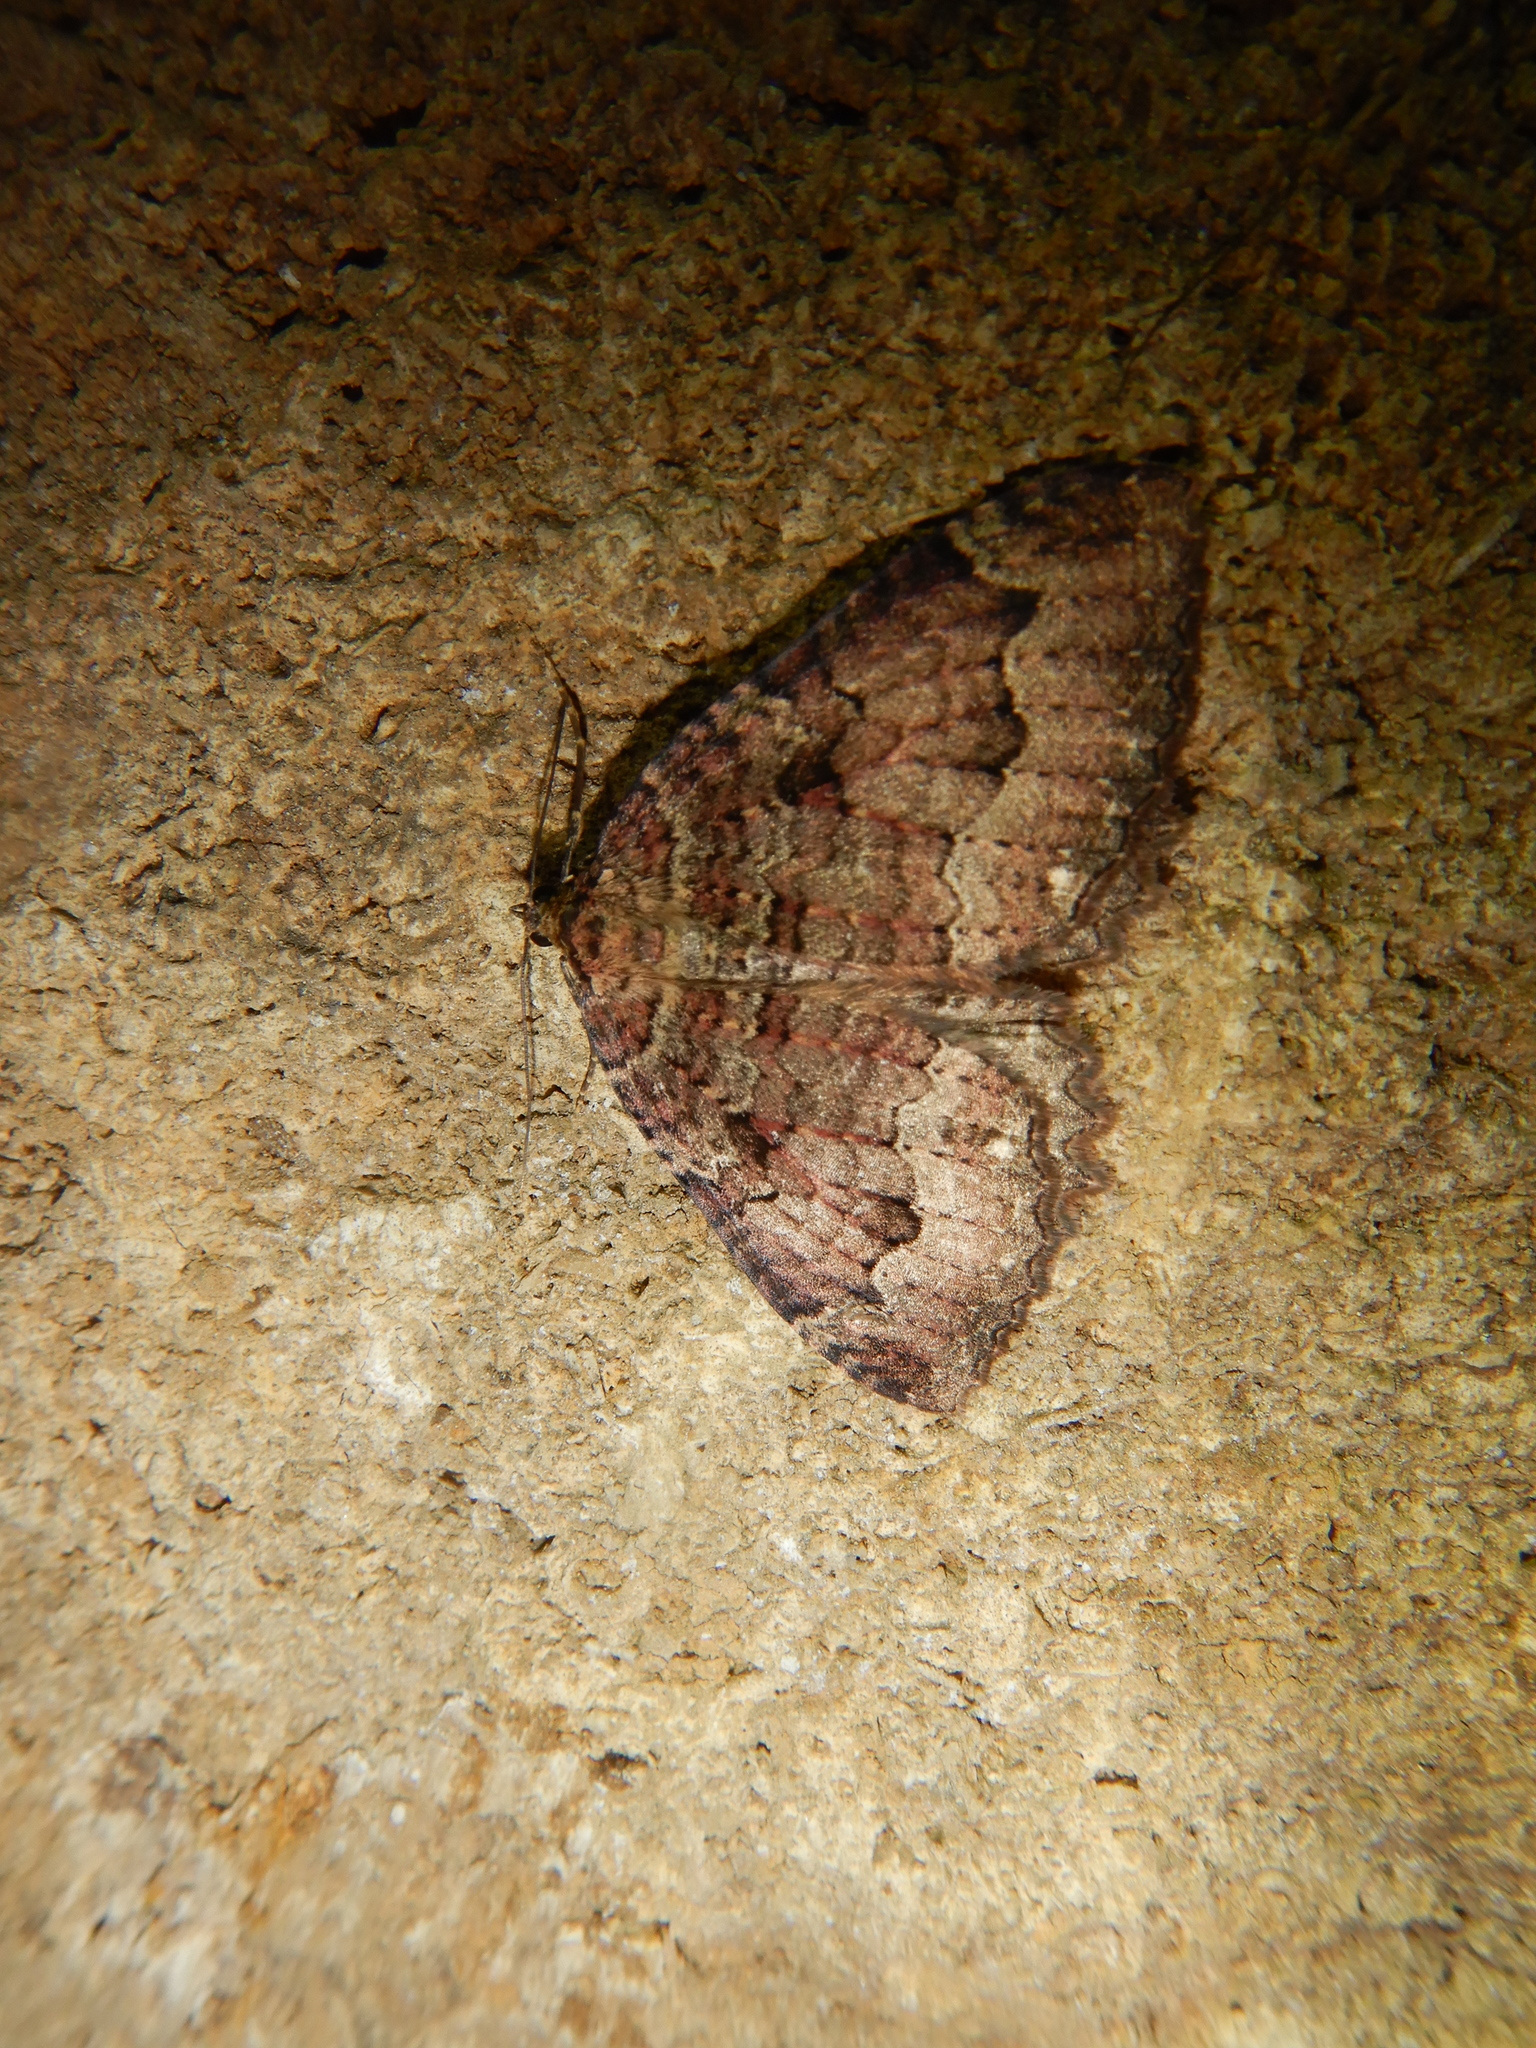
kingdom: Animalia
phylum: Arthropoda
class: Insecta
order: Lepidoptera
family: Geometridae
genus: Triphosa
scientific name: Triphosa dubitata
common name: Tissue
